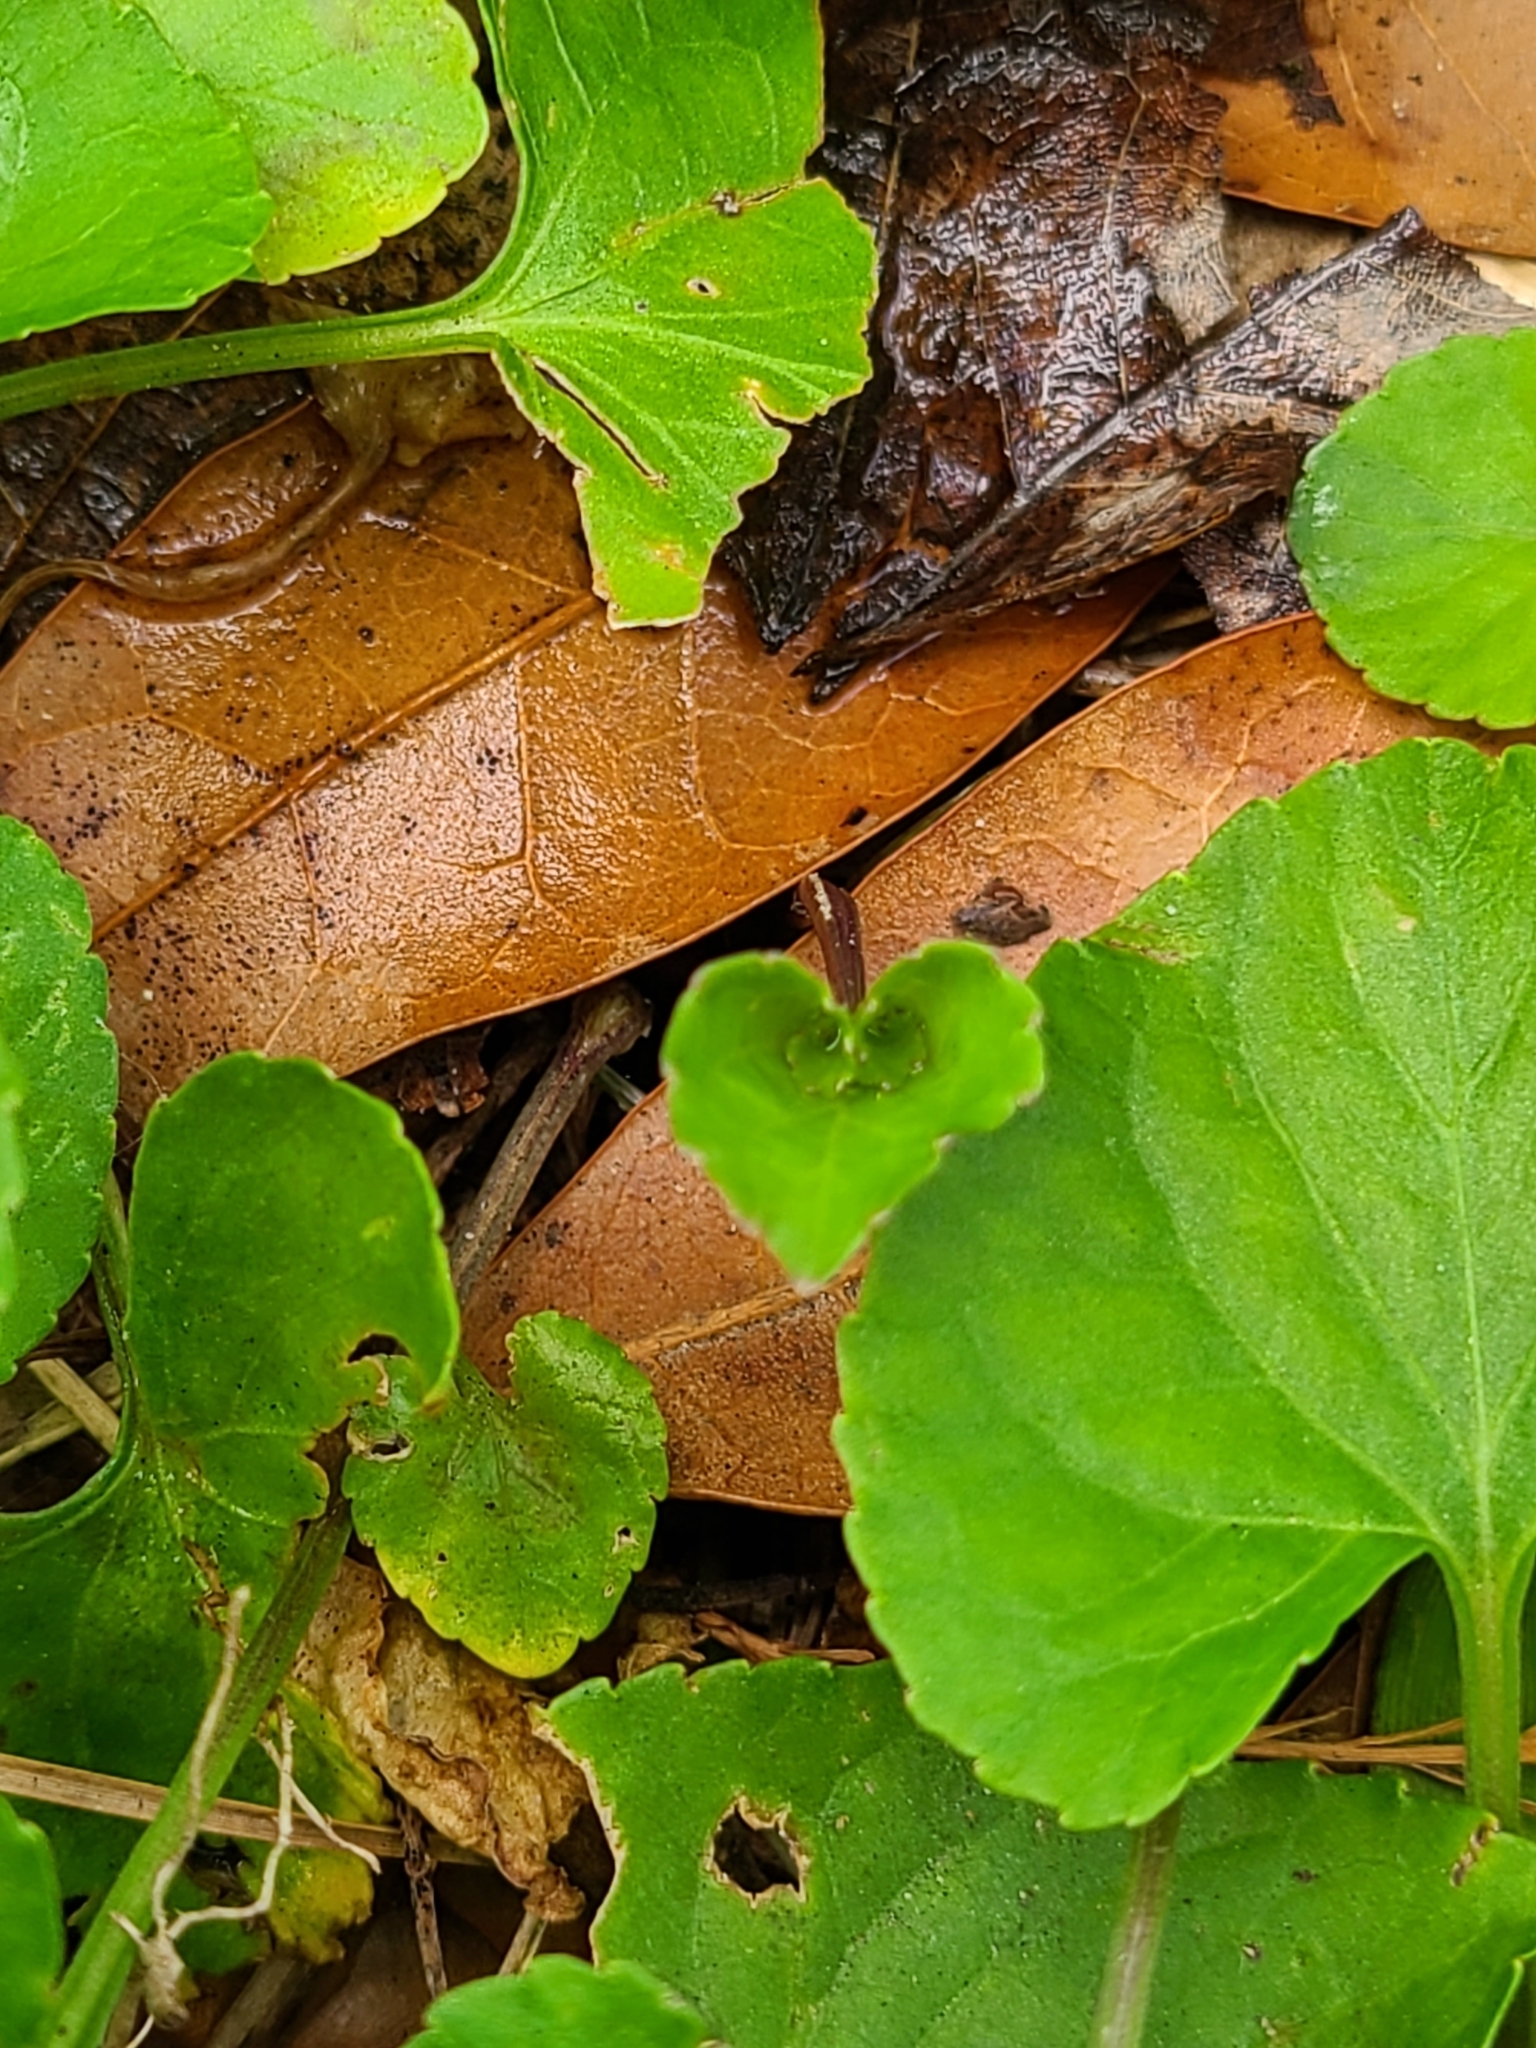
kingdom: Plantae
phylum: Tracheophyta
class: Magnoliopsida
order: Malpighiales
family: Violaceae
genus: Viola
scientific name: Viola sororia
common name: Dooryard violet
